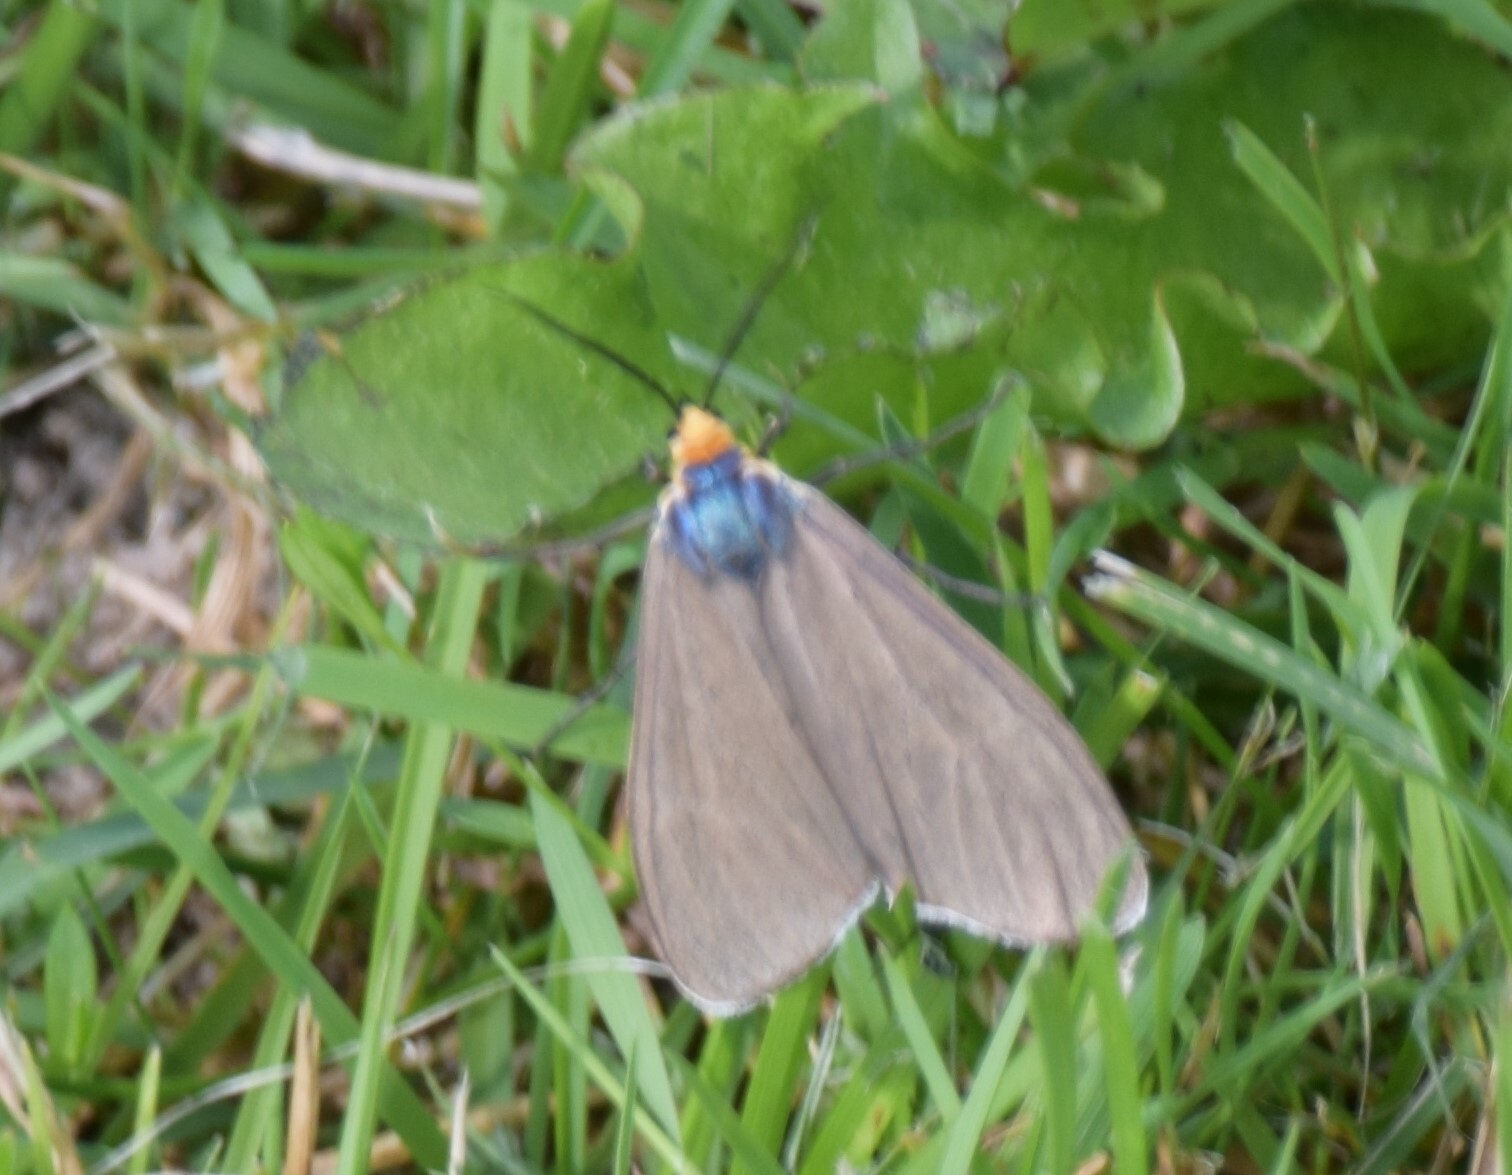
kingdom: Animalia
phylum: Arthropoda
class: Insecta
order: Lepidoptera
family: Erebidae
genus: Ctenucha
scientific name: Ctenucha virginica
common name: Virginia ctenucha moth
